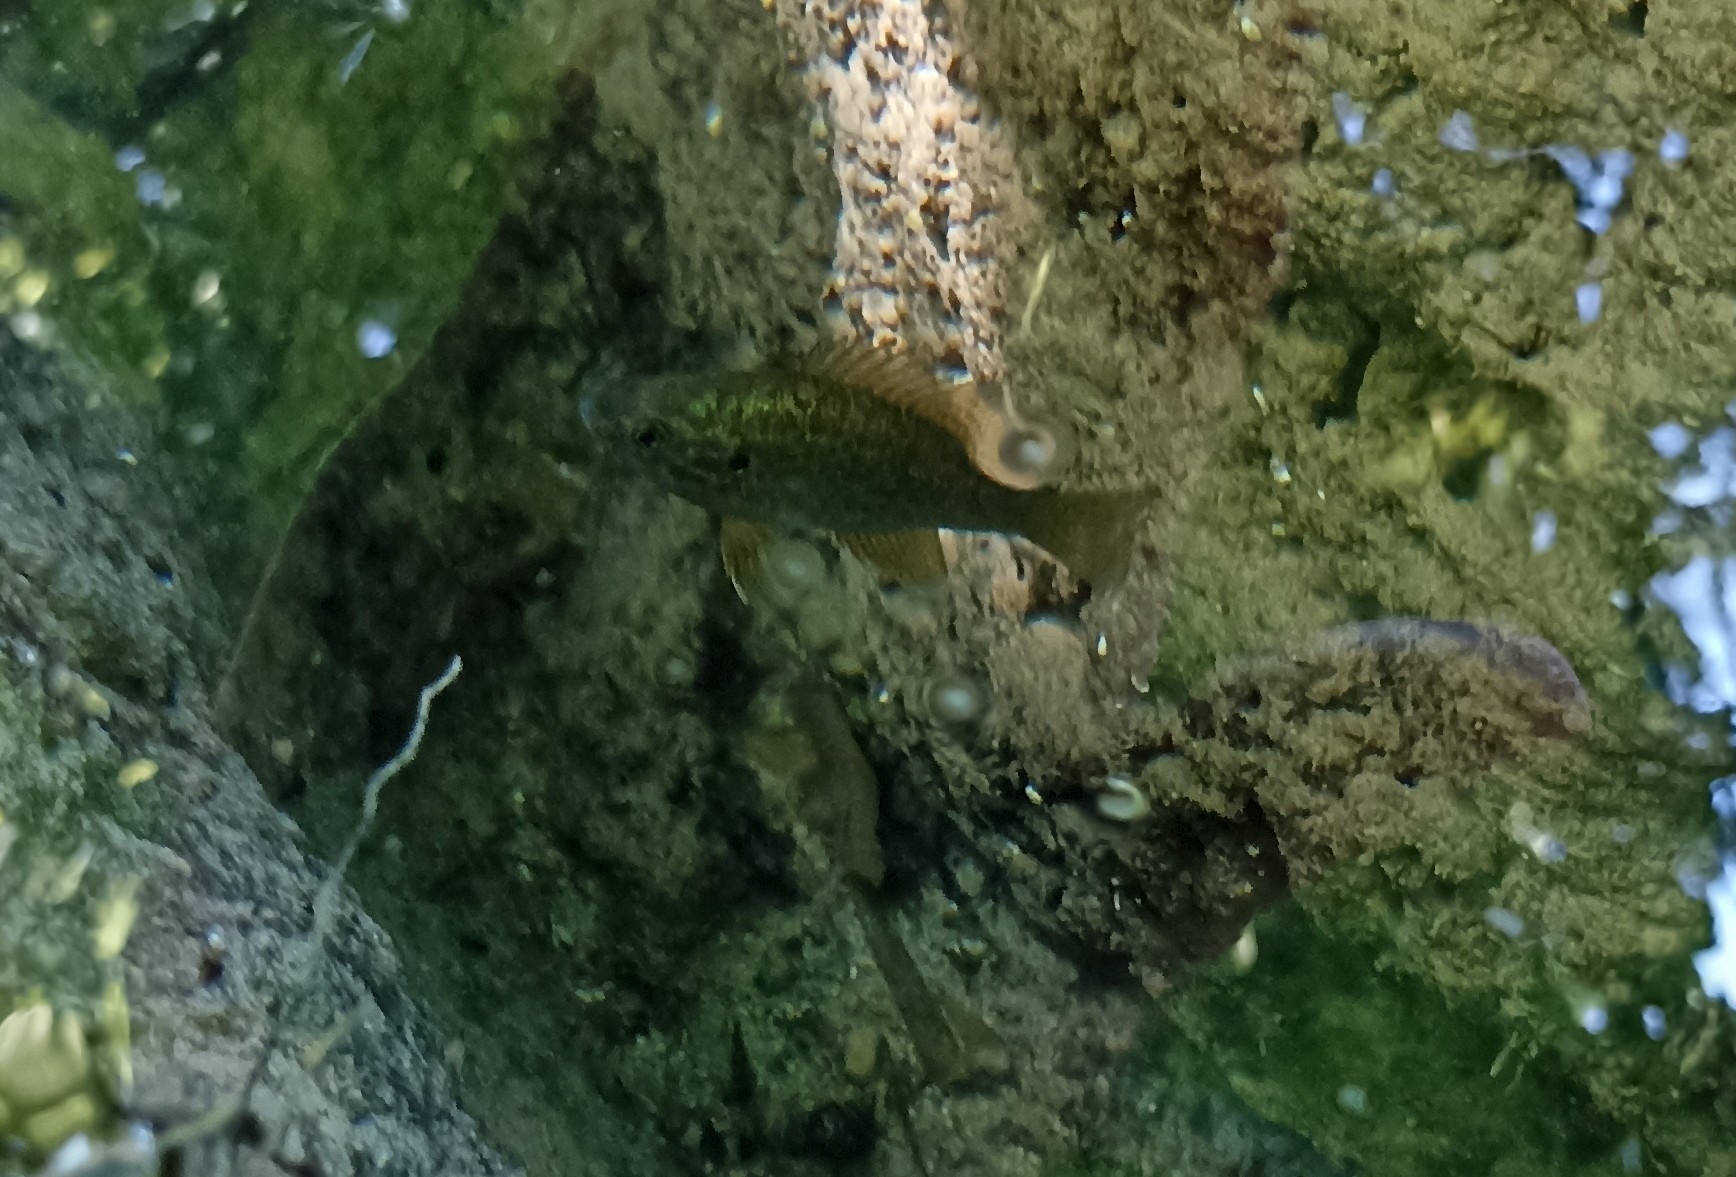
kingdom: Animalia
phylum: Chordata
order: Perciformes
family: Centrarchidae
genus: Lepomis
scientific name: Lepomis gibbosus
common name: Pumpkinseed
